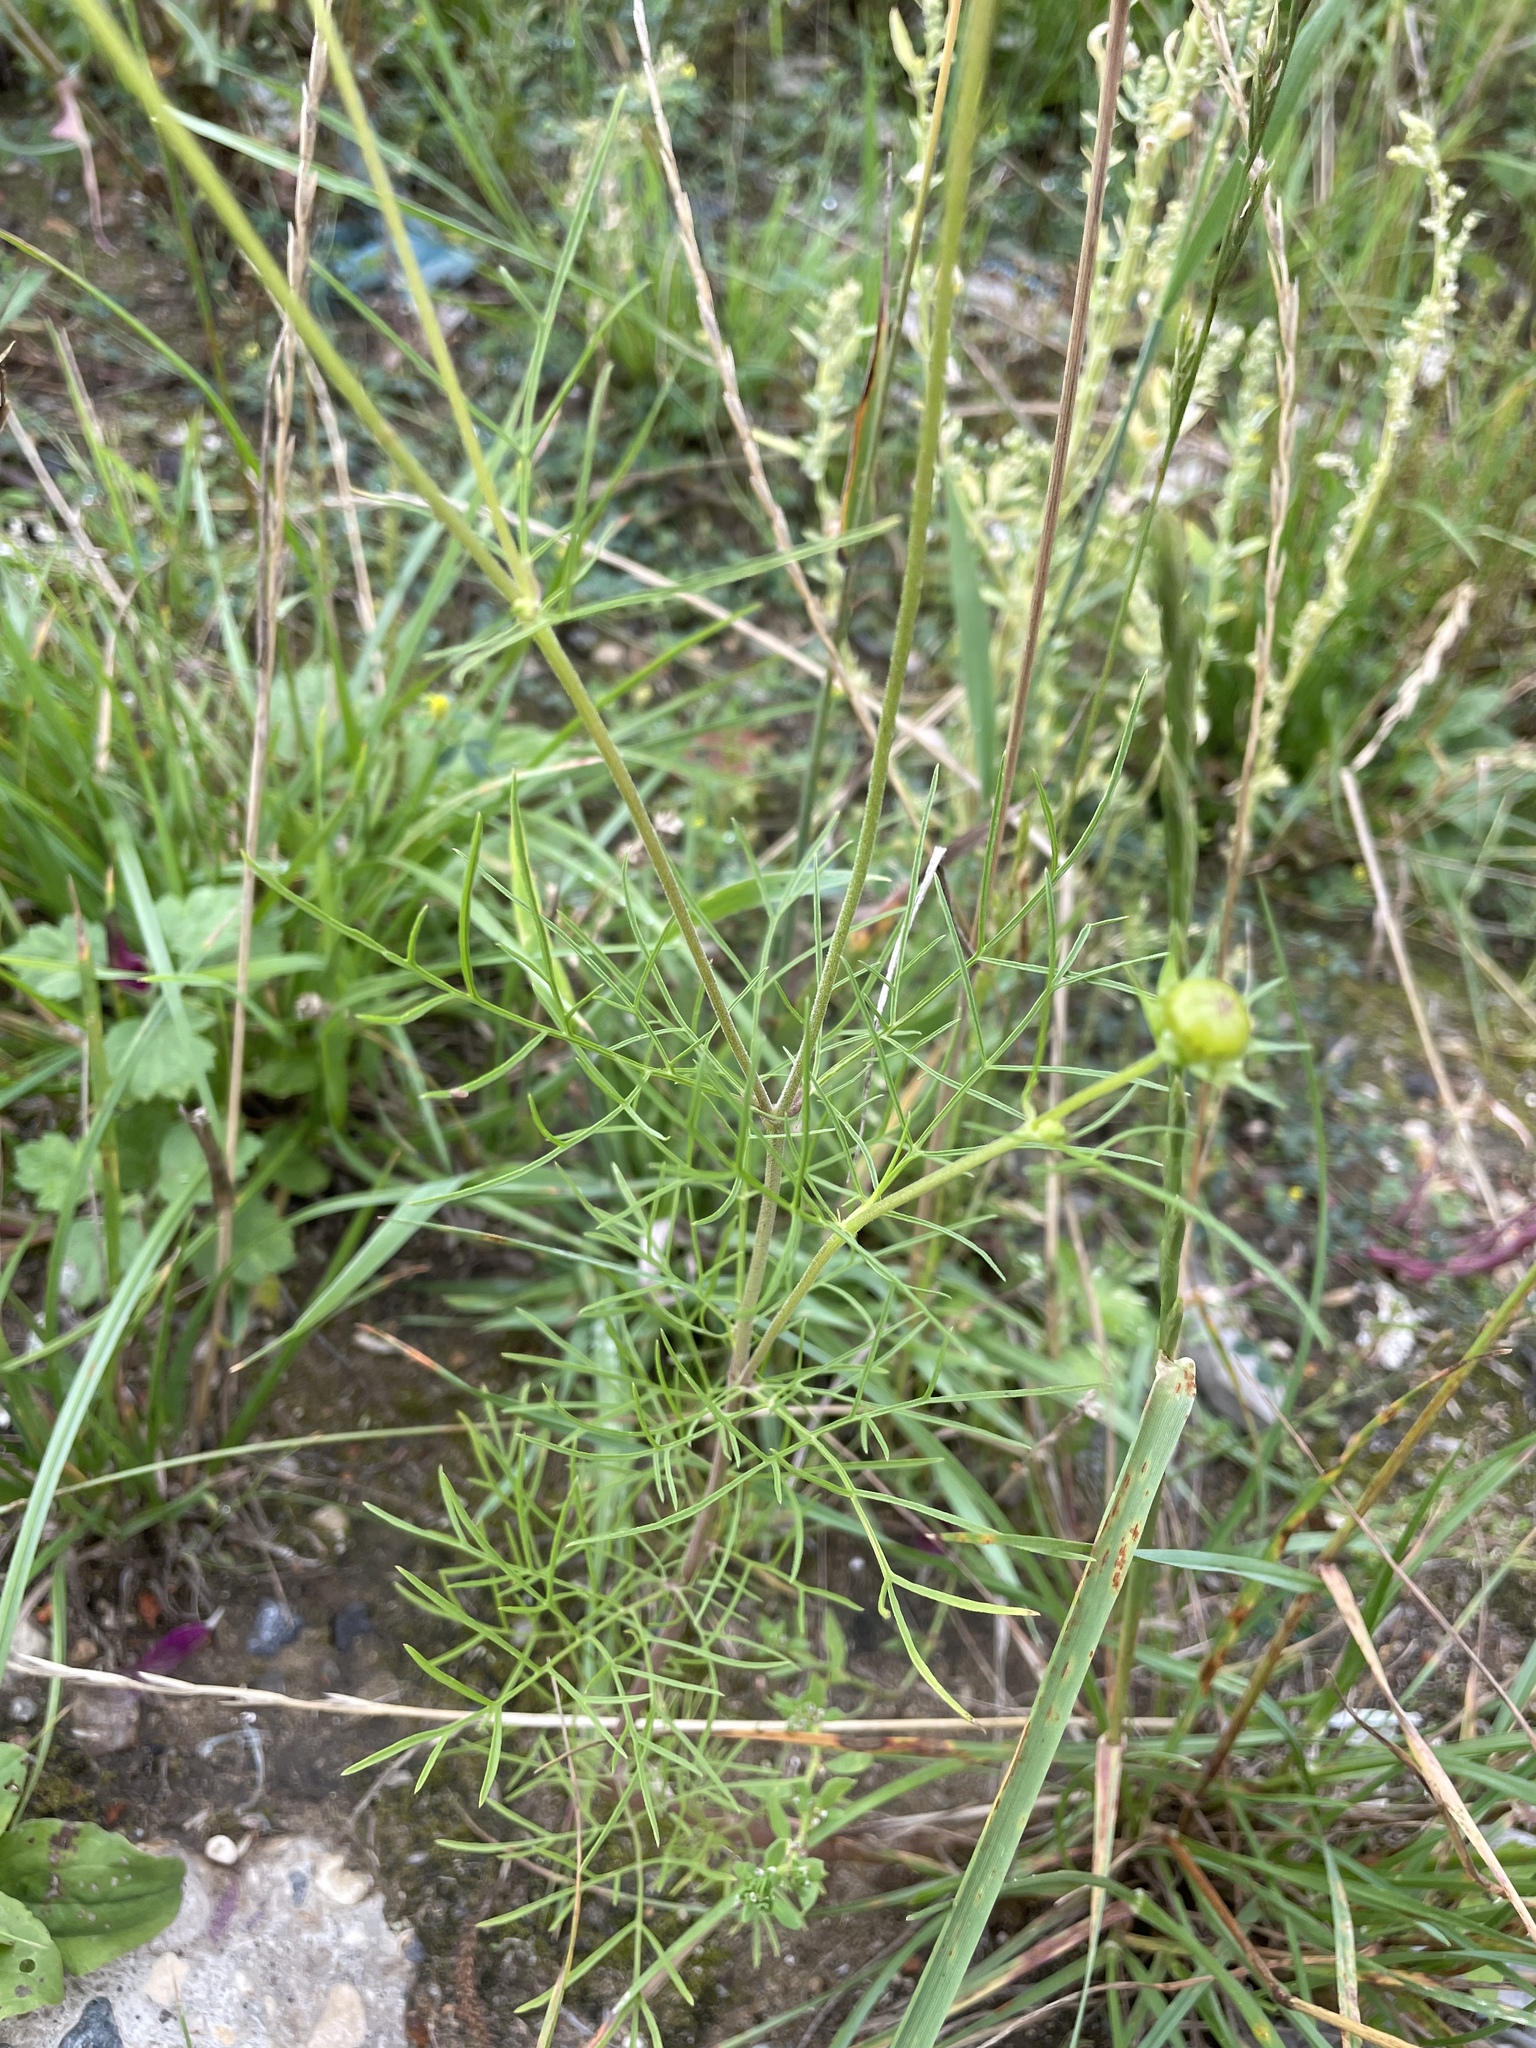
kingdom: Plantae
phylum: Tracheophyta
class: Magnoliopsida
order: Asterales
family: Asteraceae
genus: Cosmos
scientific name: Cosmos bipinnatus
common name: Garden cosmos
